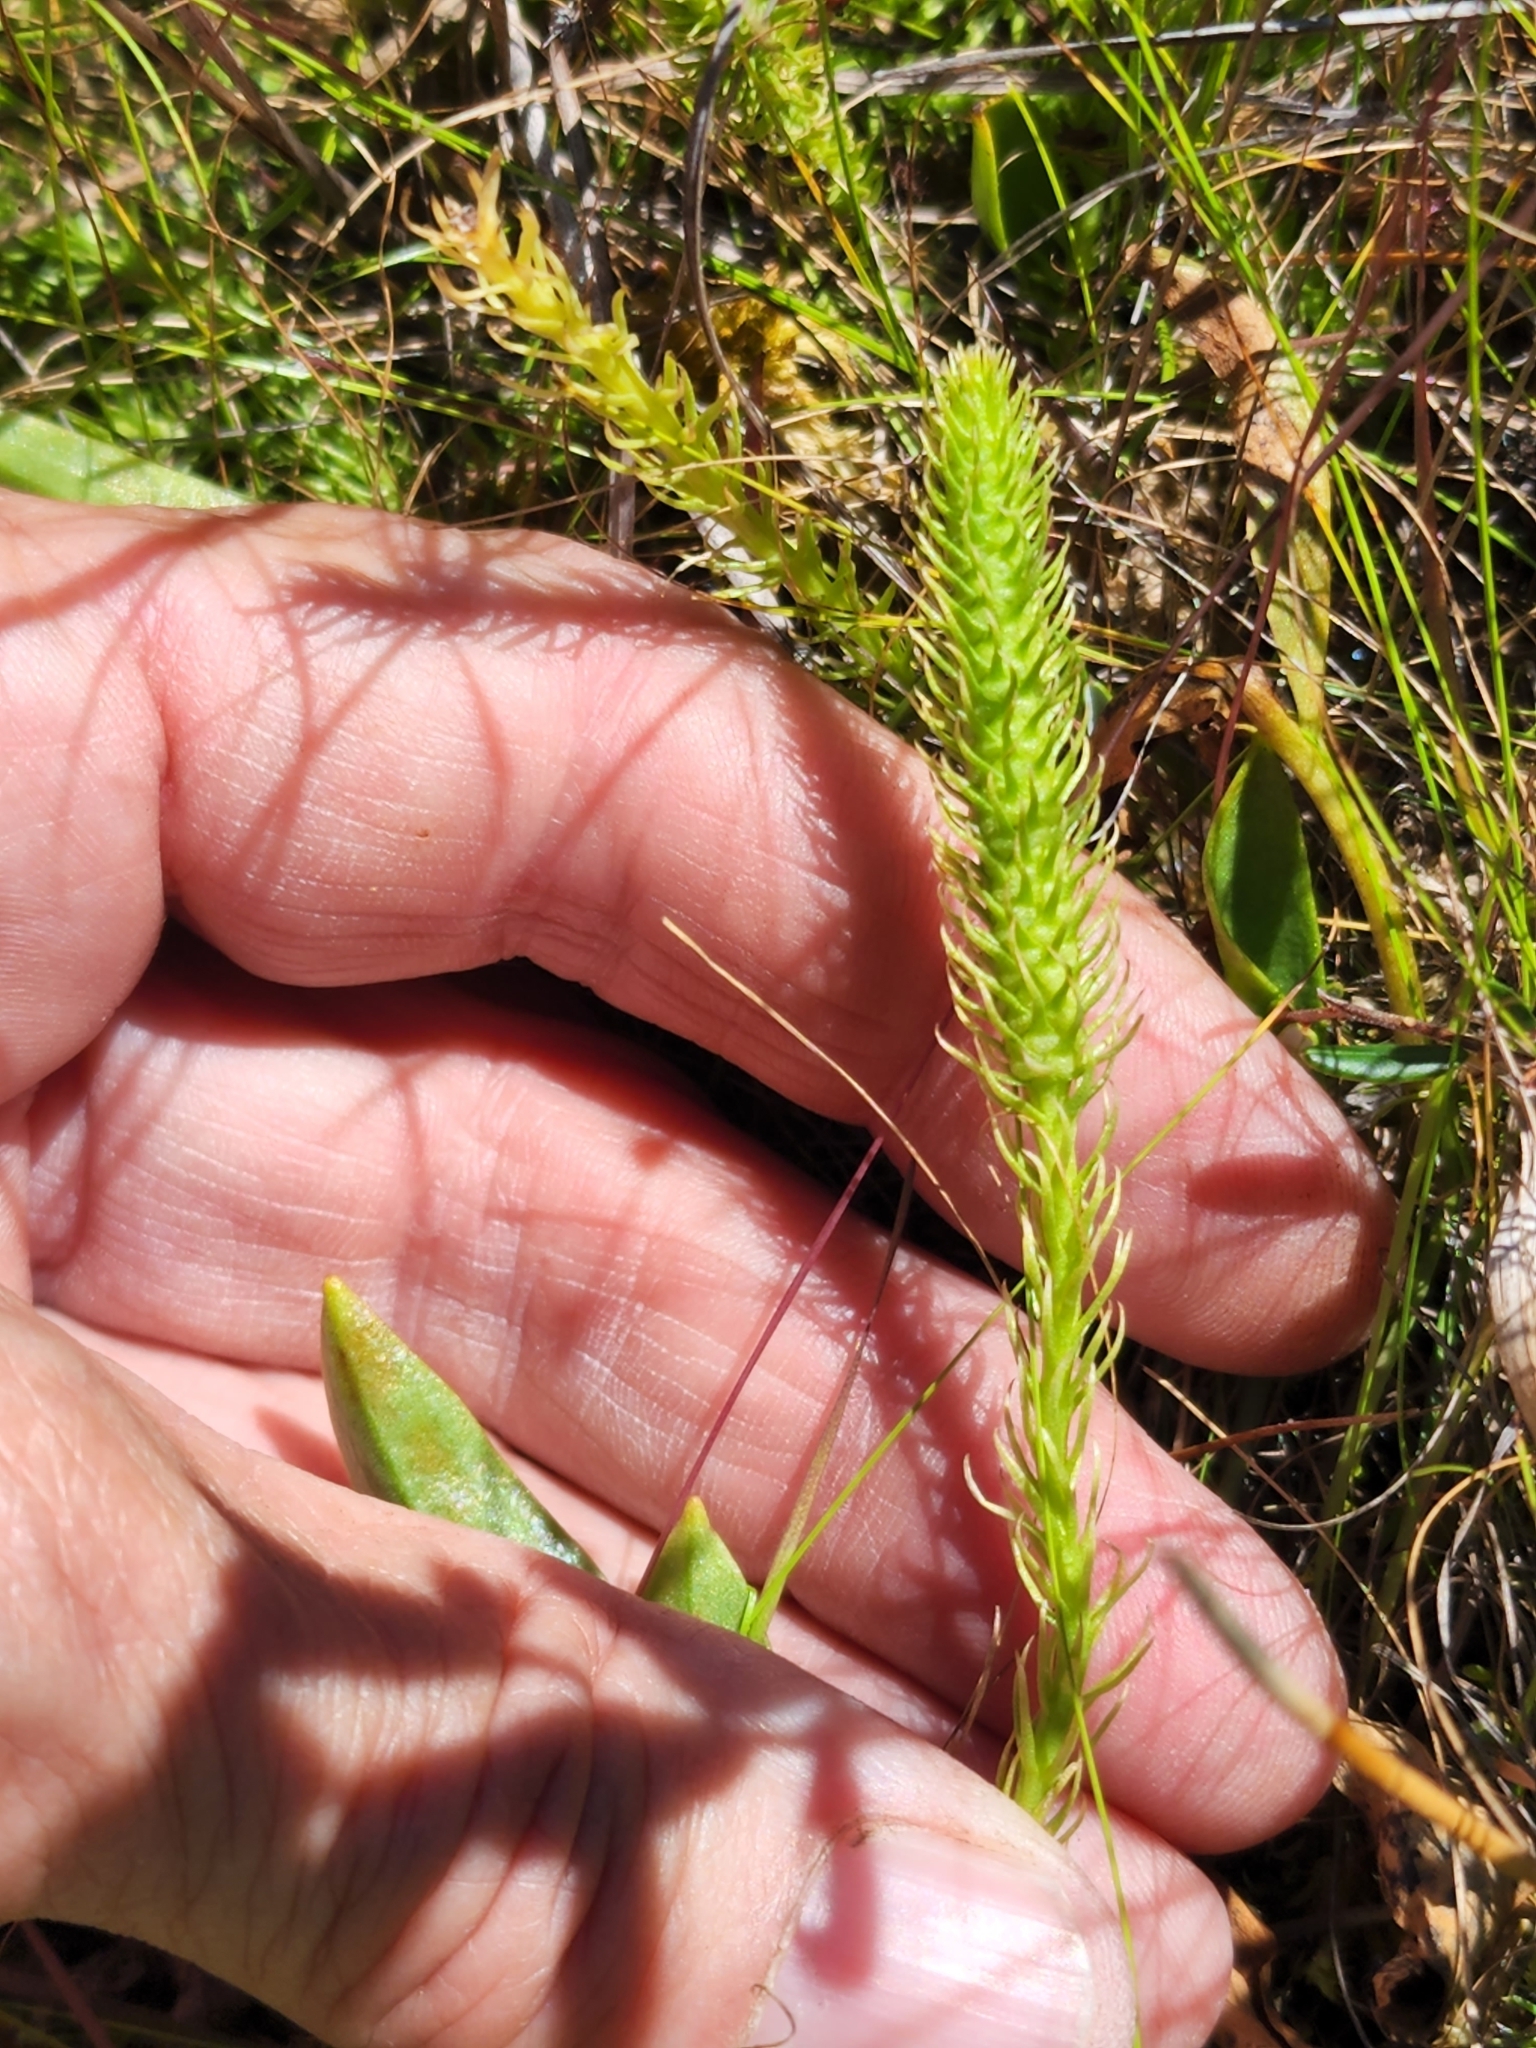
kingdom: Plantae
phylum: Tracheophyta
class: Lycopodiopsida
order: Lycopodiales
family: Lycopodiaceae
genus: Lycopodiella
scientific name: Lycopodiella inundata
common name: Marsh clubmoss
